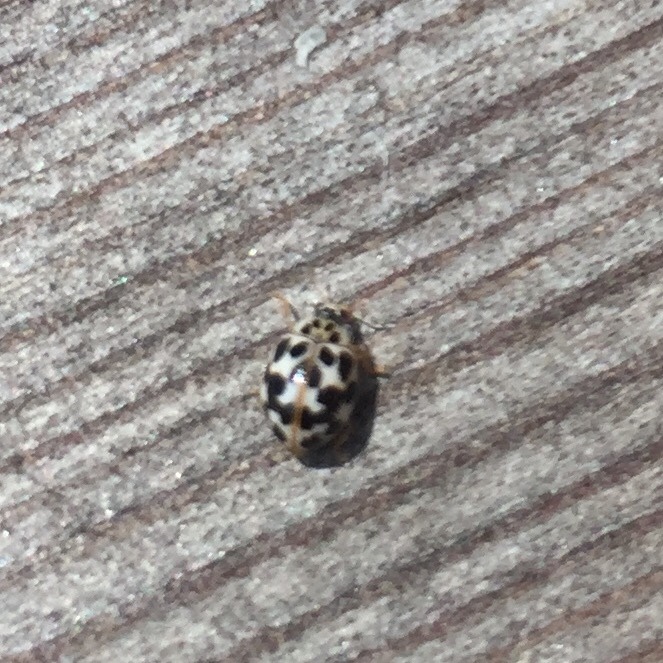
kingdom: Animalia
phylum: Arthropoda
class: Insecta
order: Coleoptera
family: Coccinellidae
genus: Psyllobora
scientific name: Psyllobora vigintimaculata
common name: Ladybird beetle
